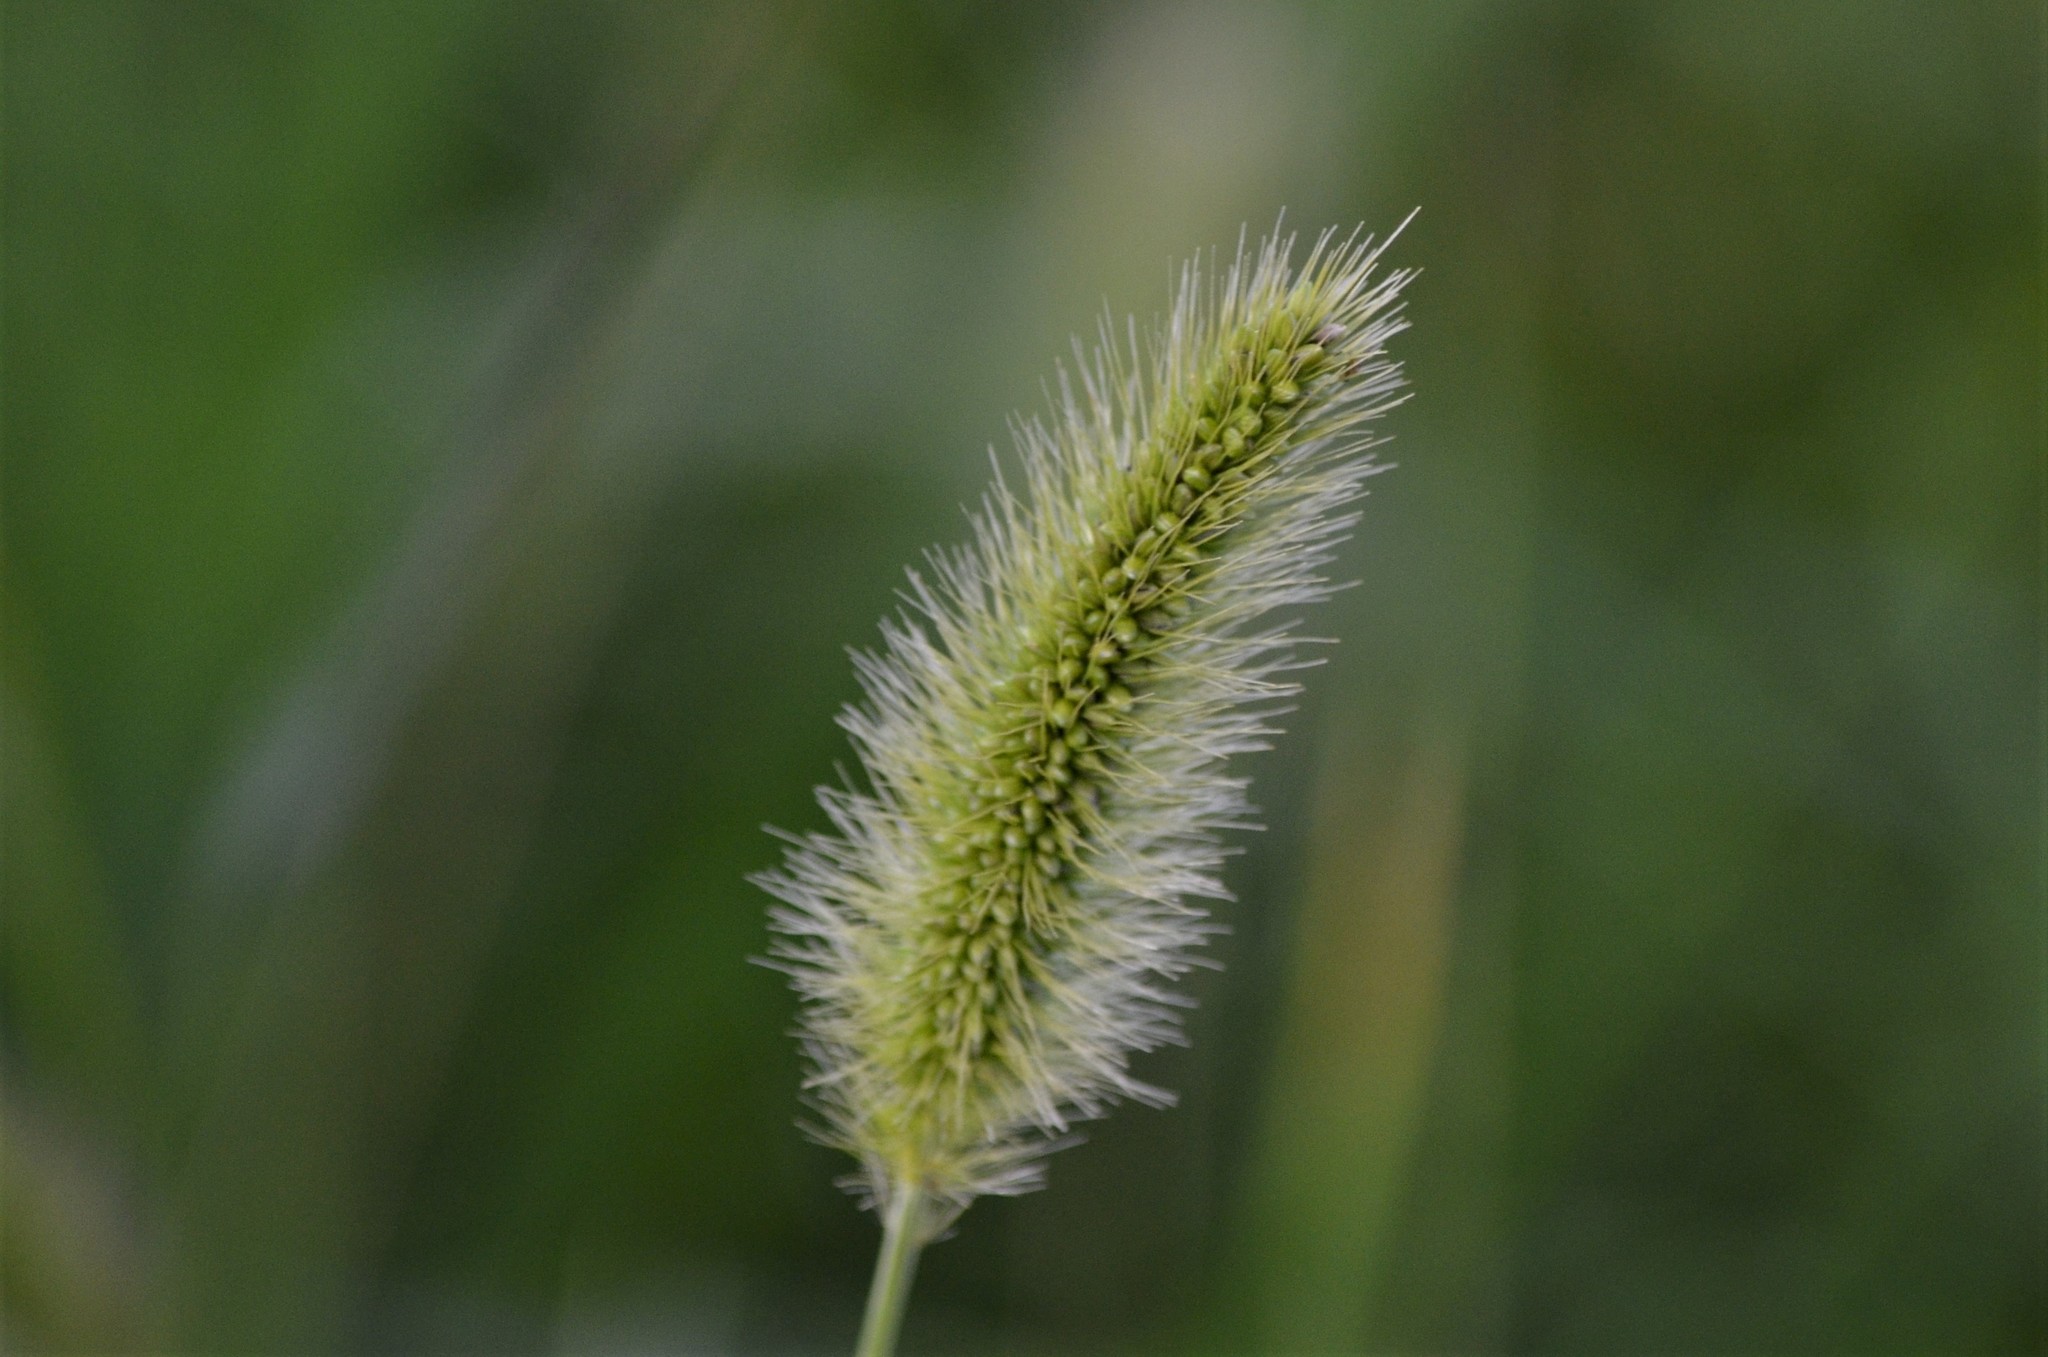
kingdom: Plantae
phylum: Tracheophyta
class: Liliopsida
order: Poales
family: Poaceae
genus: Setaria
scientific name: Setaria viridis
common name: Green bristlegrass
